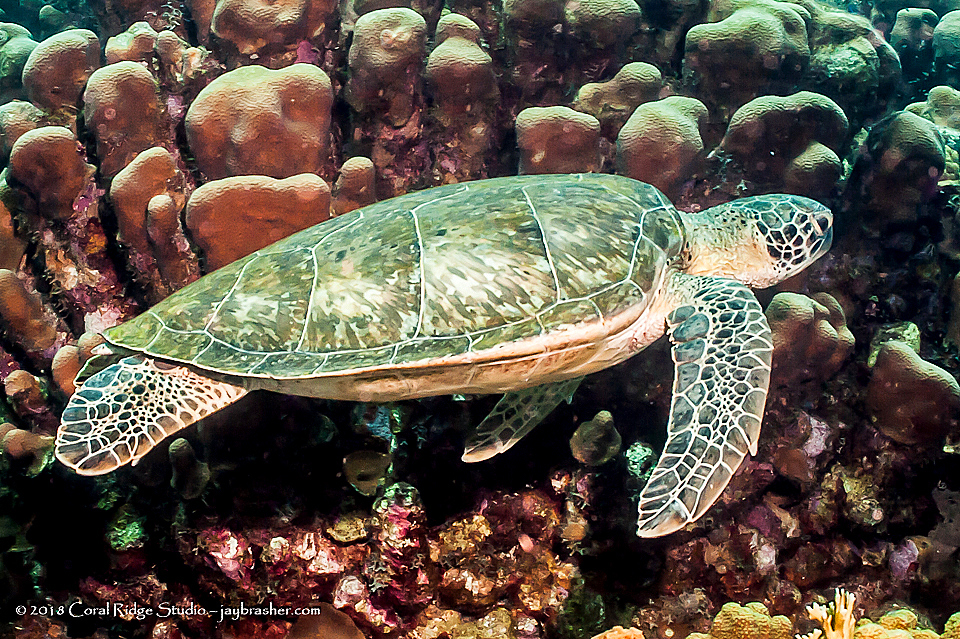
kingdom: Animalia
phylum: Chordata
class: Testudines
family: Cheloniidae
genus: Chelonia
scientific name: Chelonia mydas
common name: Green turtle
